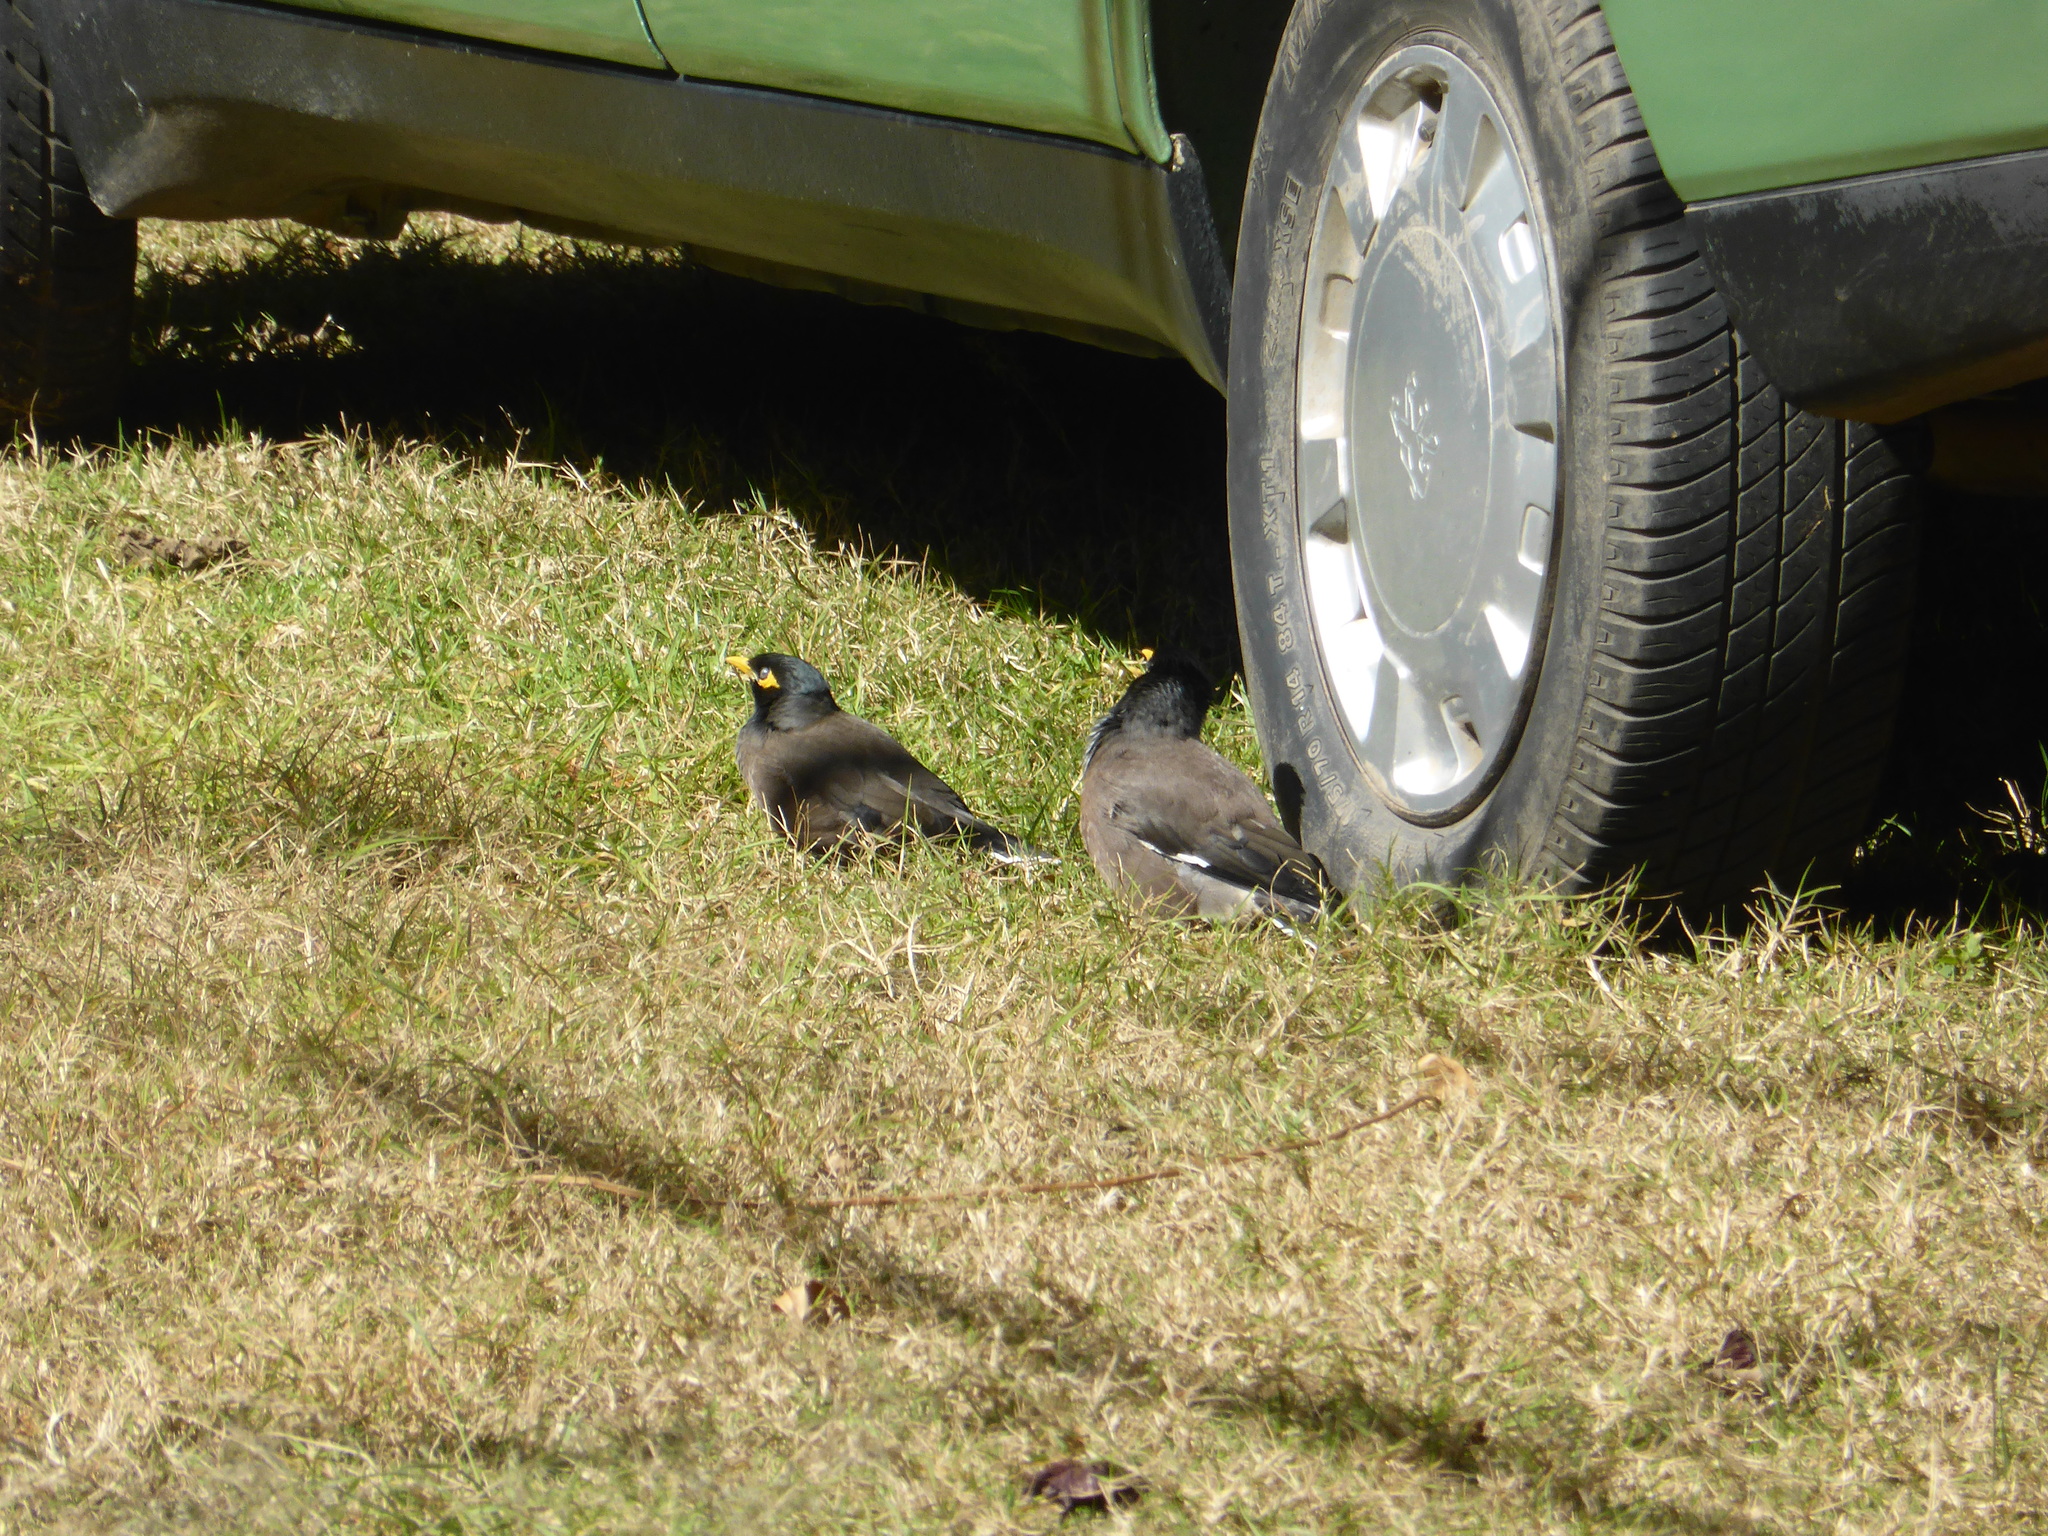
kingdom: Animalia
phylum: Chordata
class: Aves
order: Passeriformes
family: Sturnidae
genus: Acridotheres
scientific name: Acridotheres tristis
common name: Common myna
